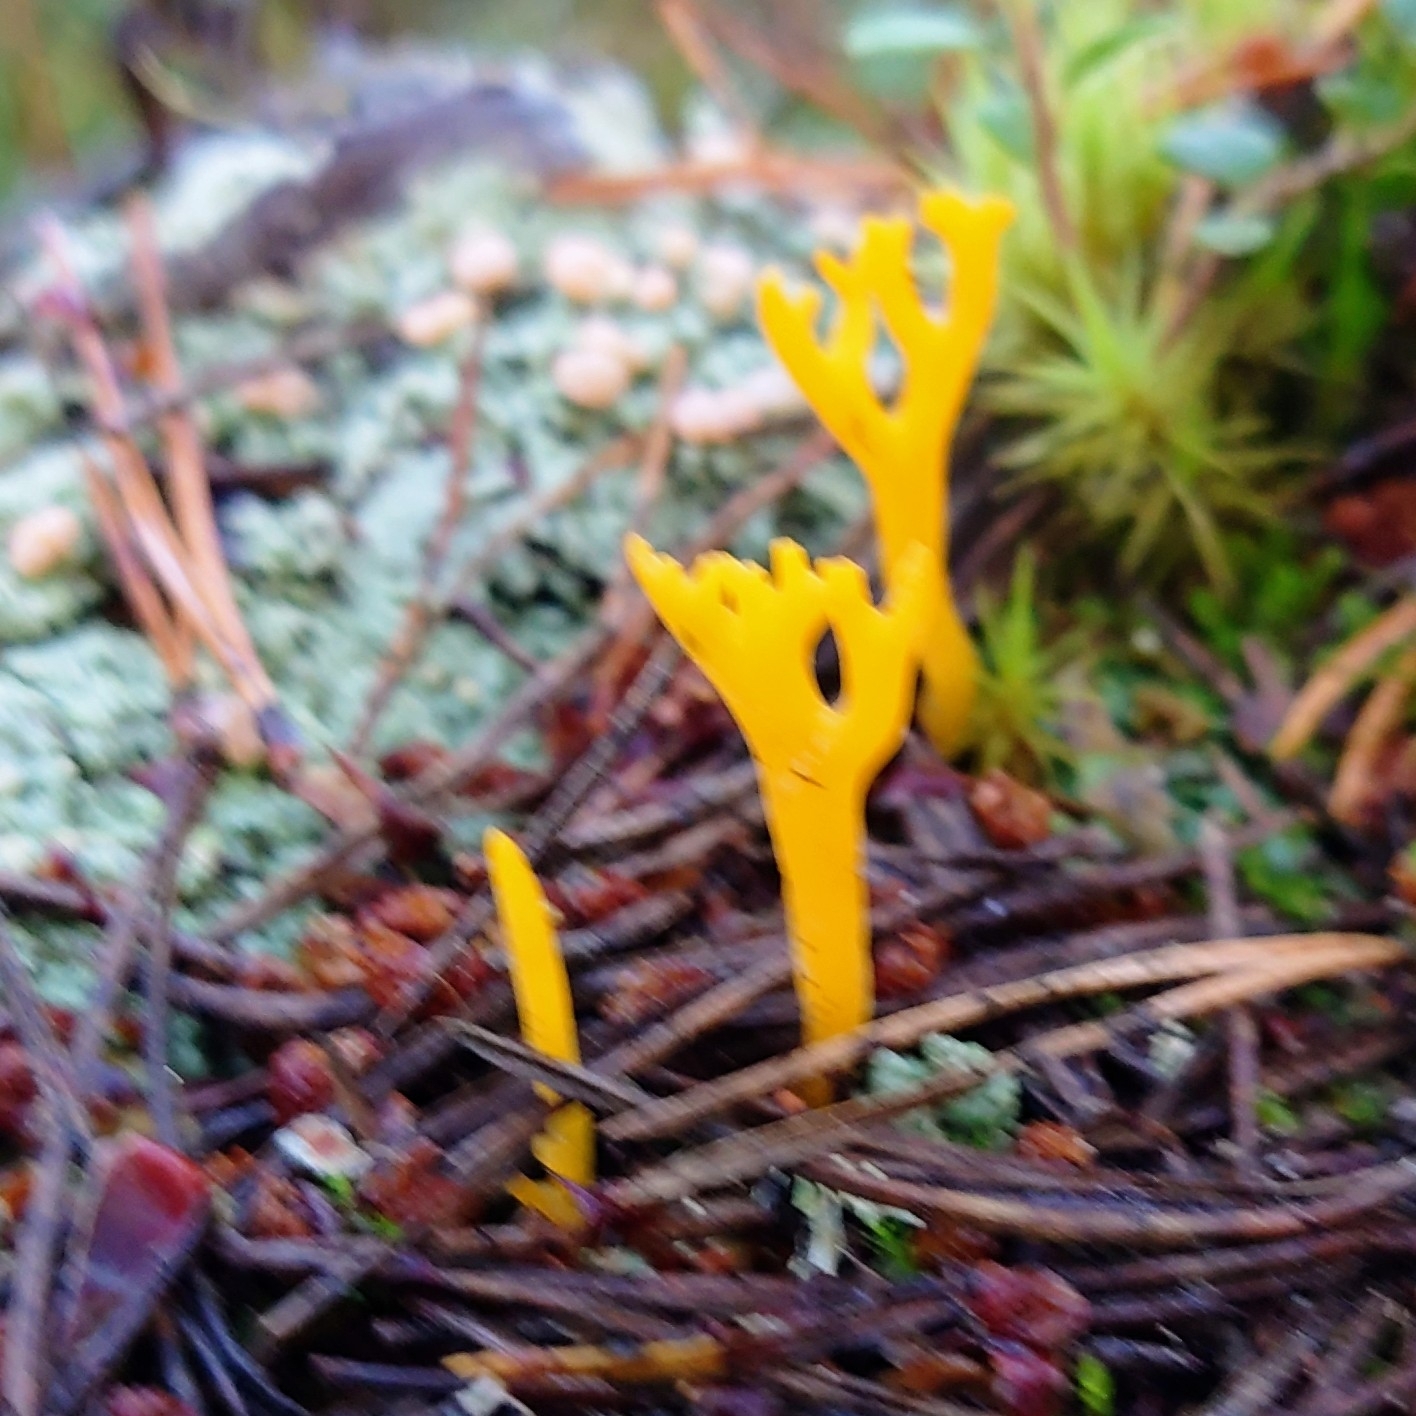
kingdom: Fungi
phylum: Basidiomycota
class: Dacrymycetes
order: Dacrymycetales
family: Dacrymycetaceae
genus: Calocera
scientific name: Calocera viscosa
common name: Yellow stagshorn
